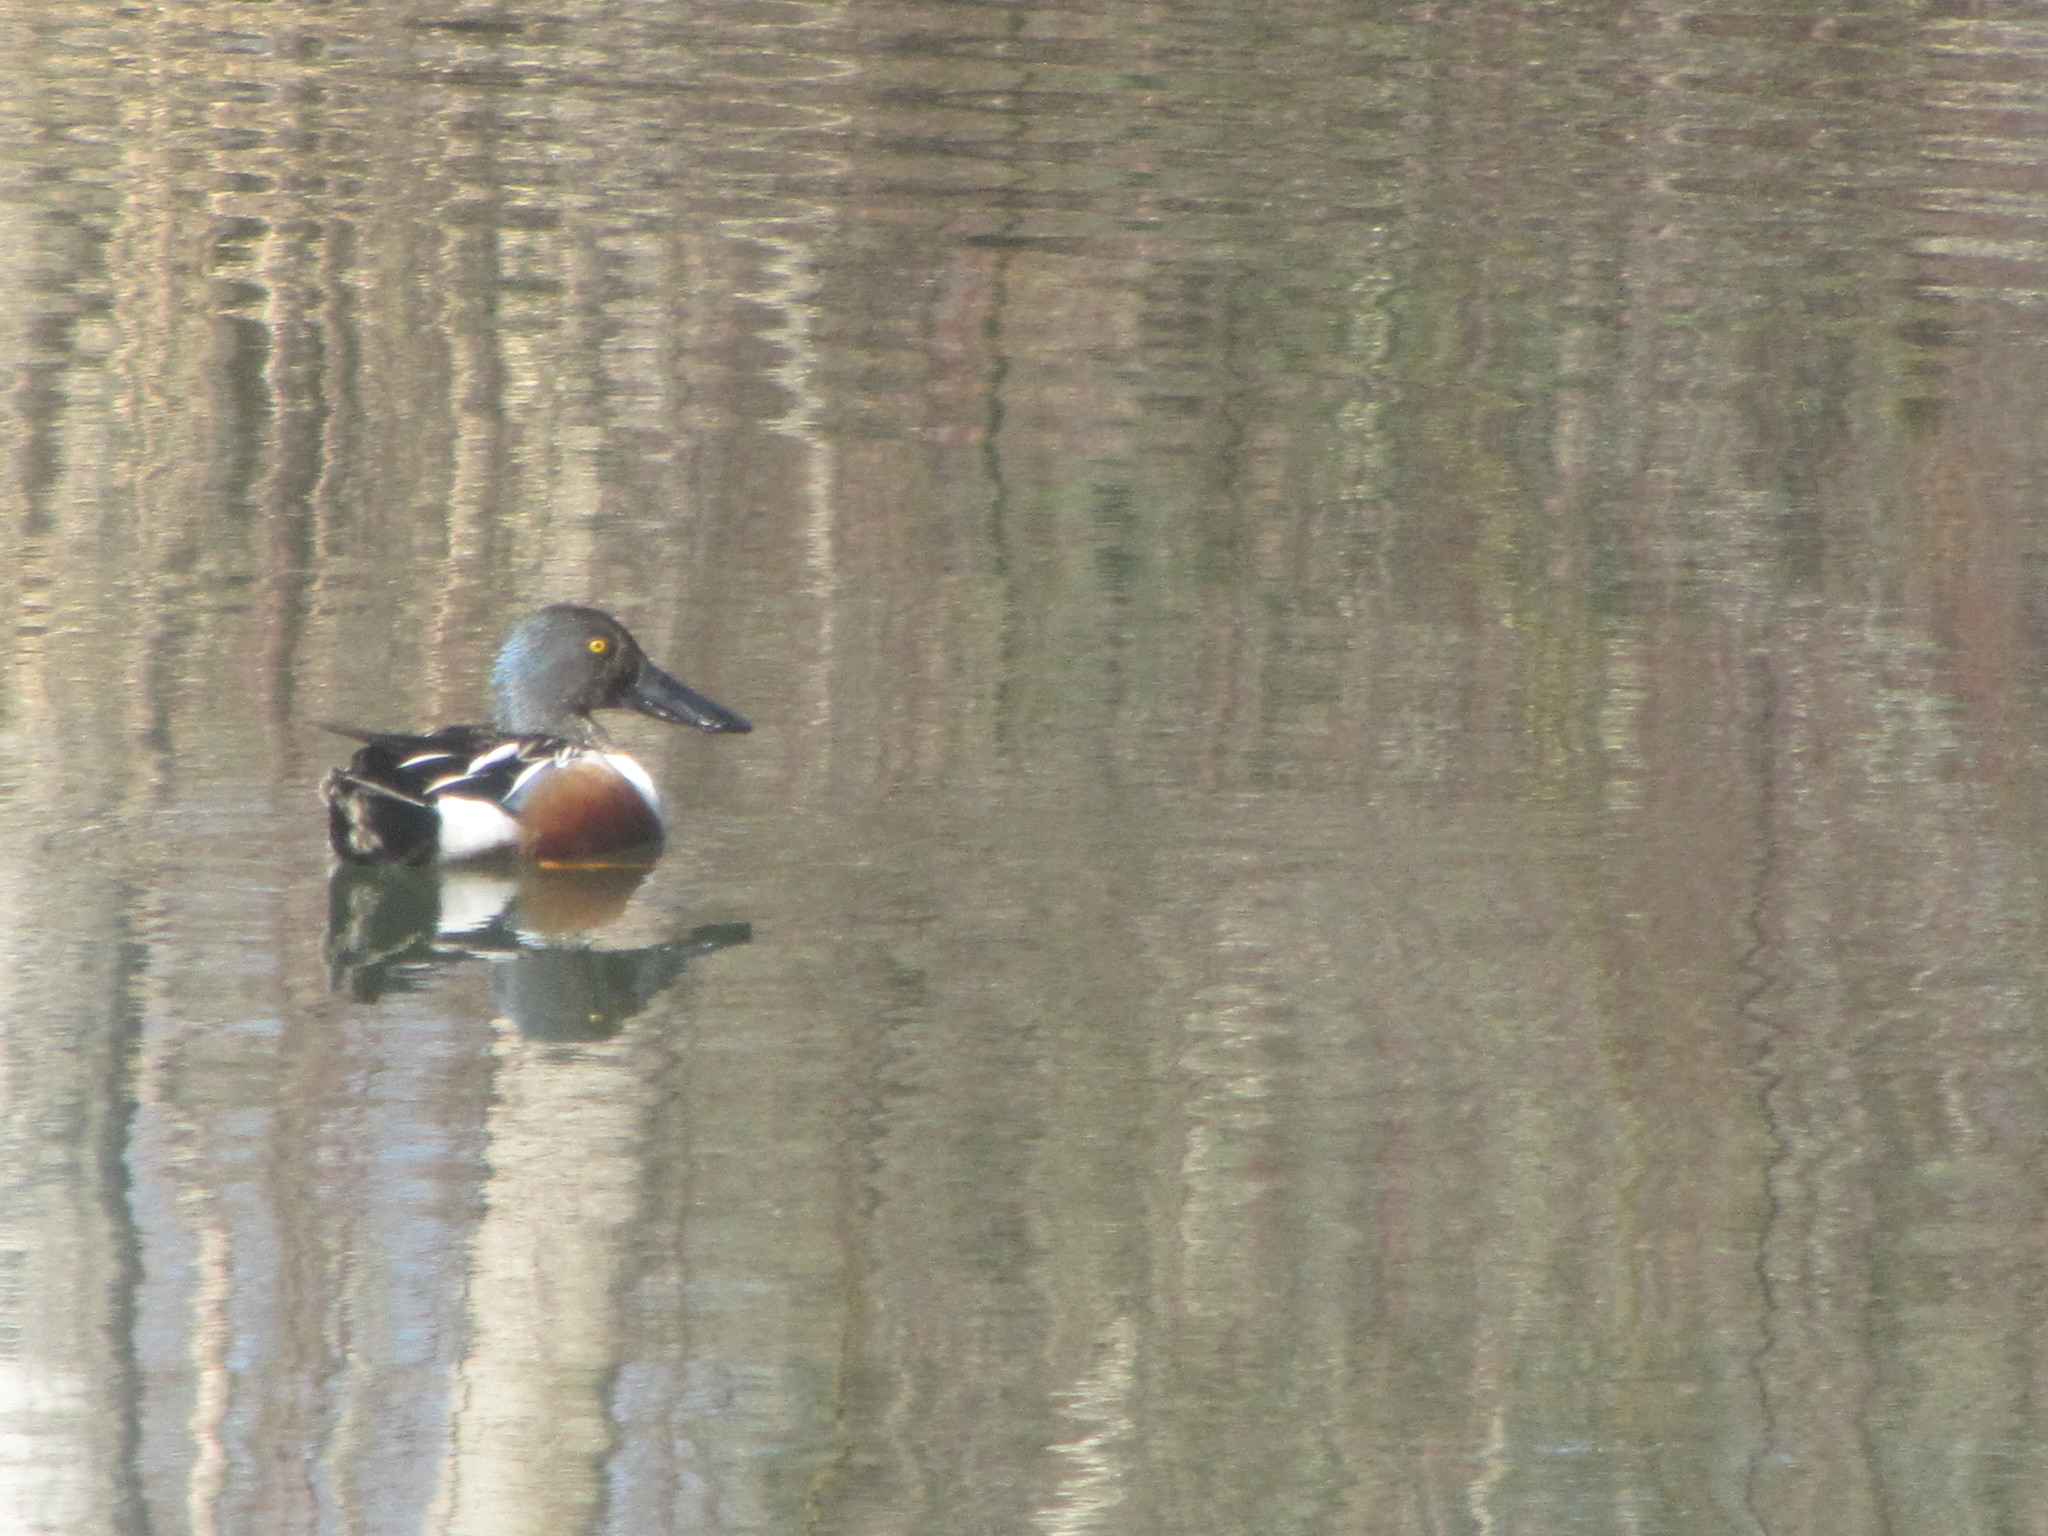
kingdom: Animalia
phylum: Chordata
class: Aves
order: Anseriformes
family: Anatidae
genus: Spatula
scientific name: Spatula clypeata
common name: Northern shoveler
